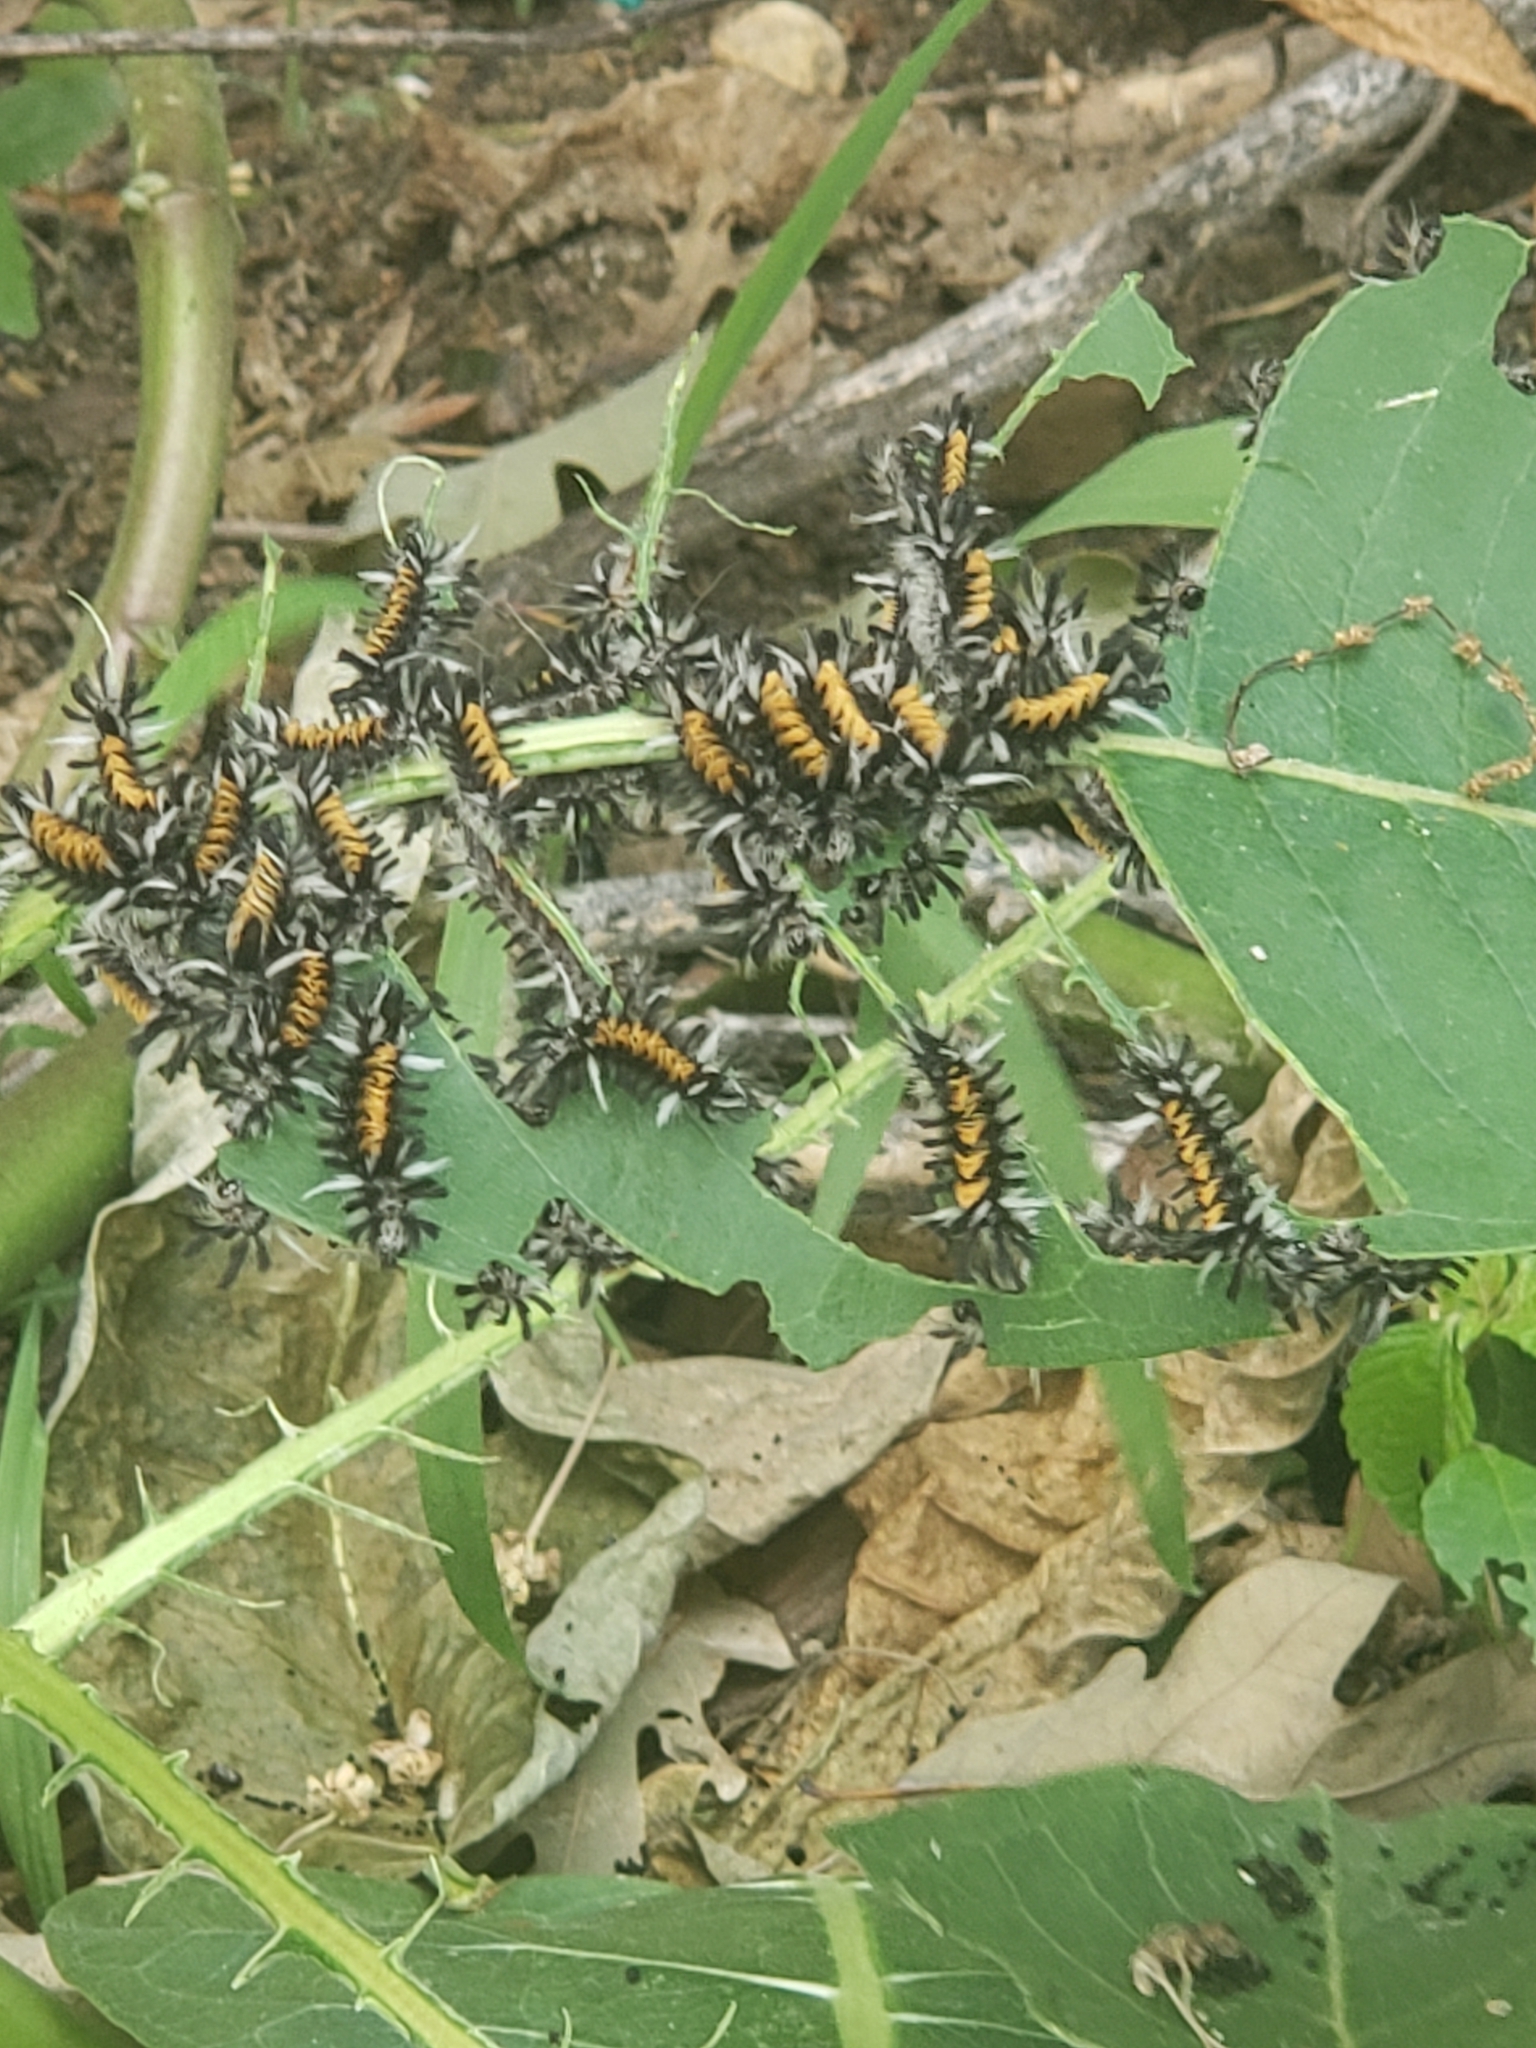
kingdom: Animalia
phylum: Arthropoda
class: Insecta
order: Lepidoptera
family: Erebidae
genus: Euchaetes
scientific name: Euchaetes egle
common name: Milkweed tussock moth
